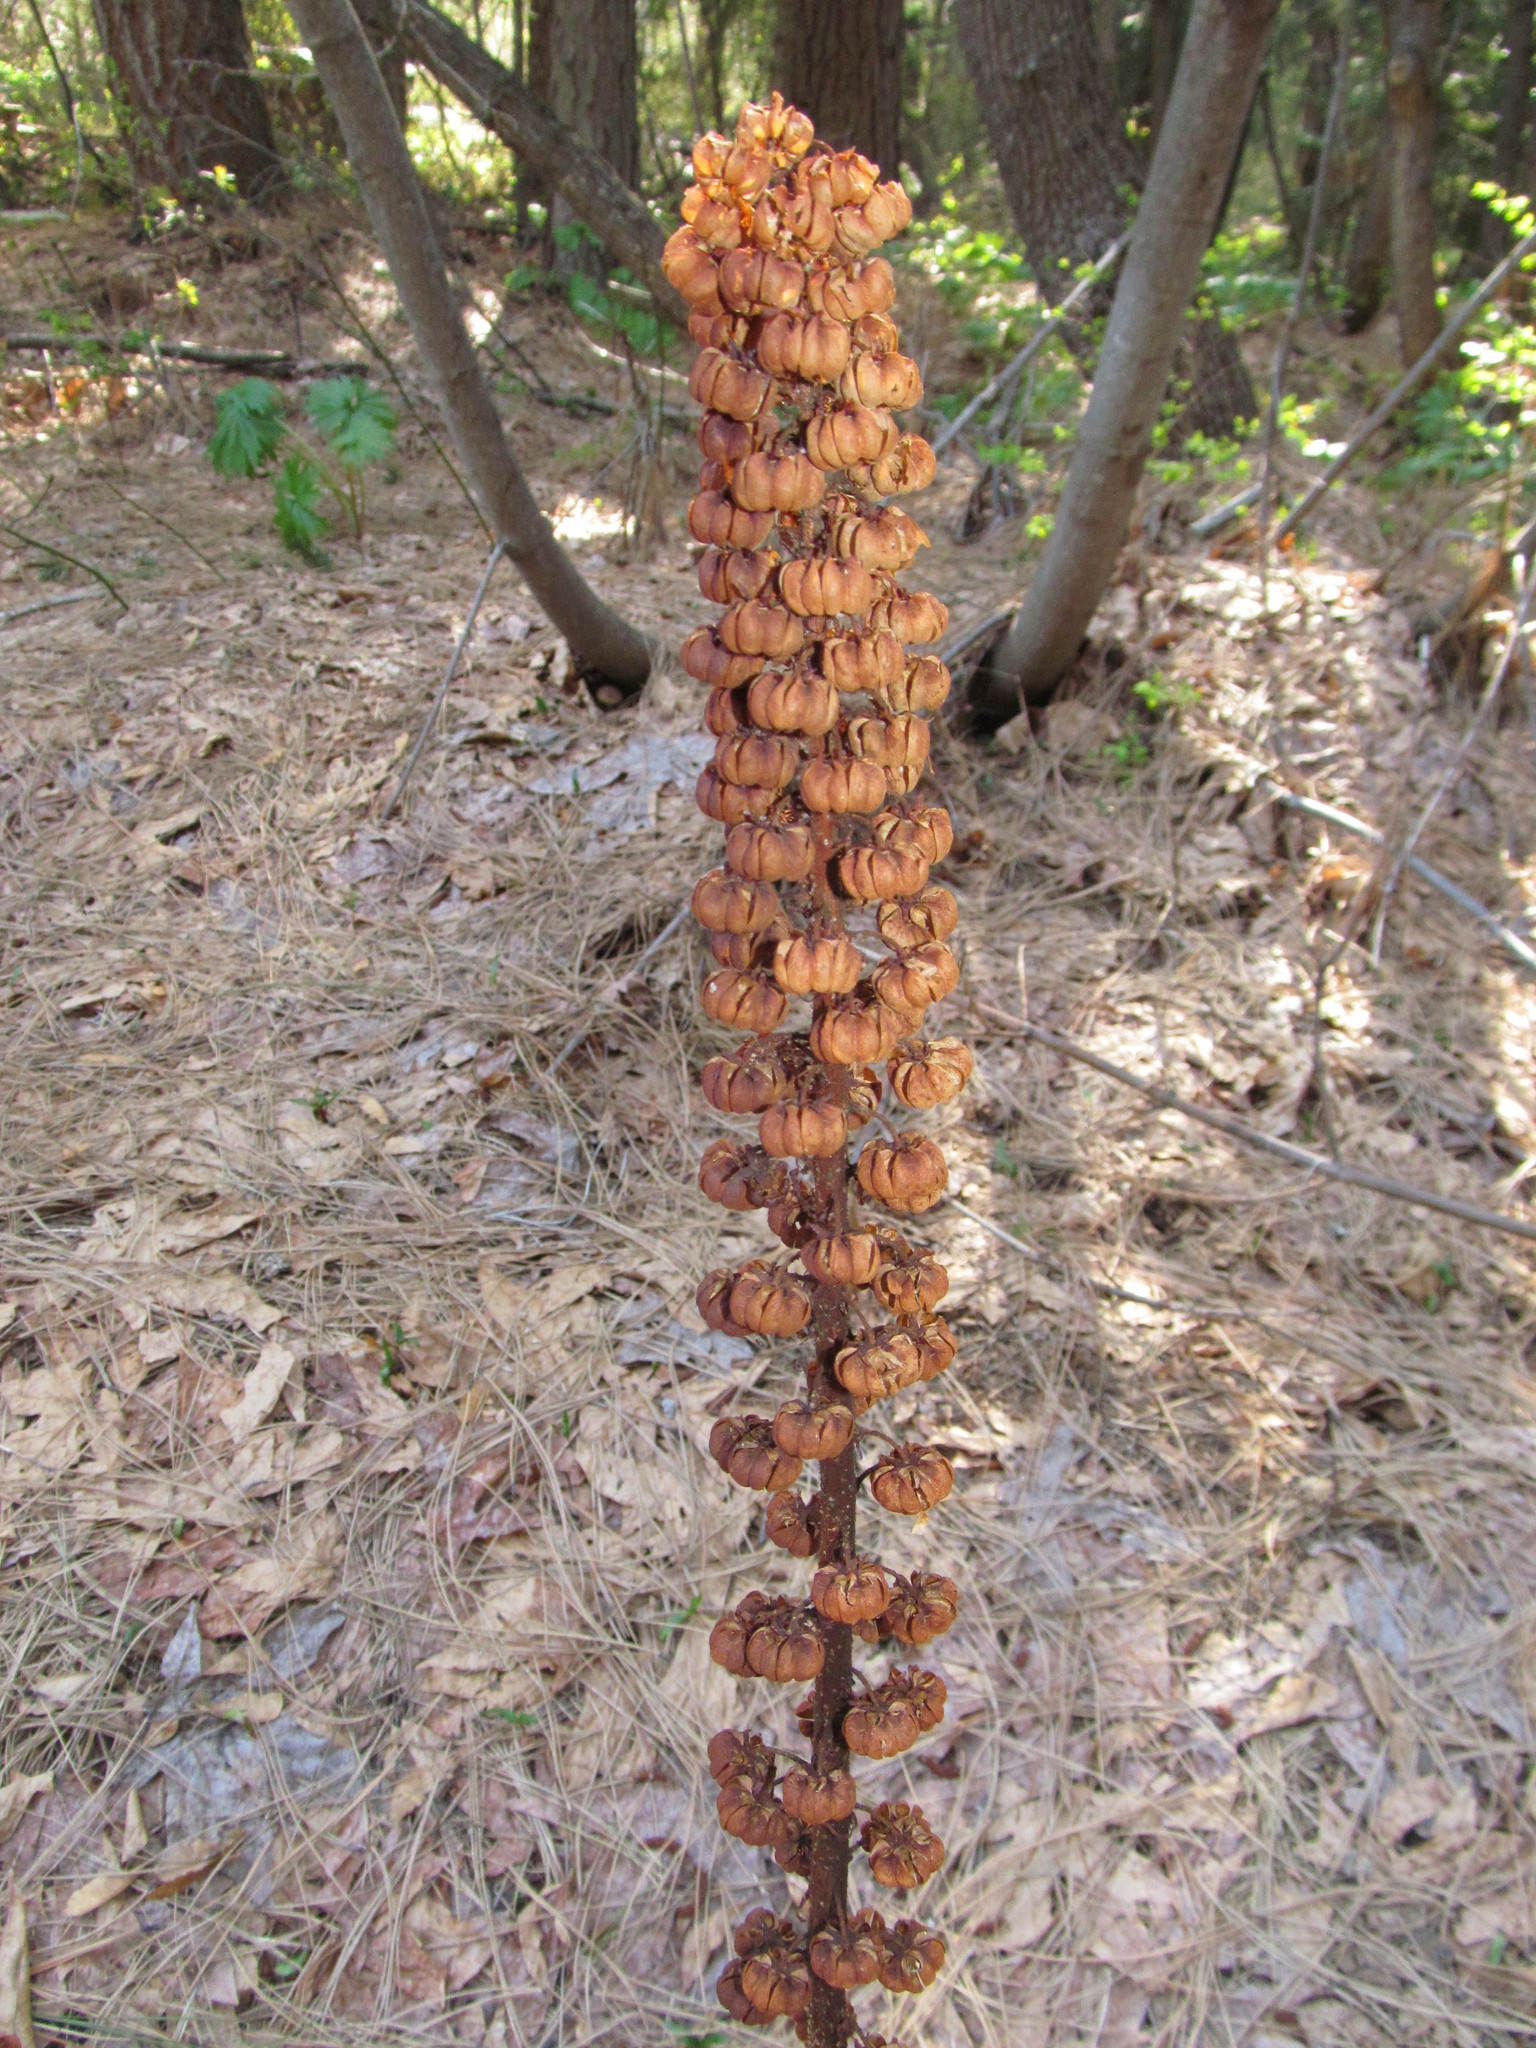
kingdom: Plantae
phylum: Tracheophyta
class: Magnoliopsida
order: Ericales
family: Ericaceae
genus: Pterospora
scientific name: Pterospora andromedea
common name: Giant bird's-nest
